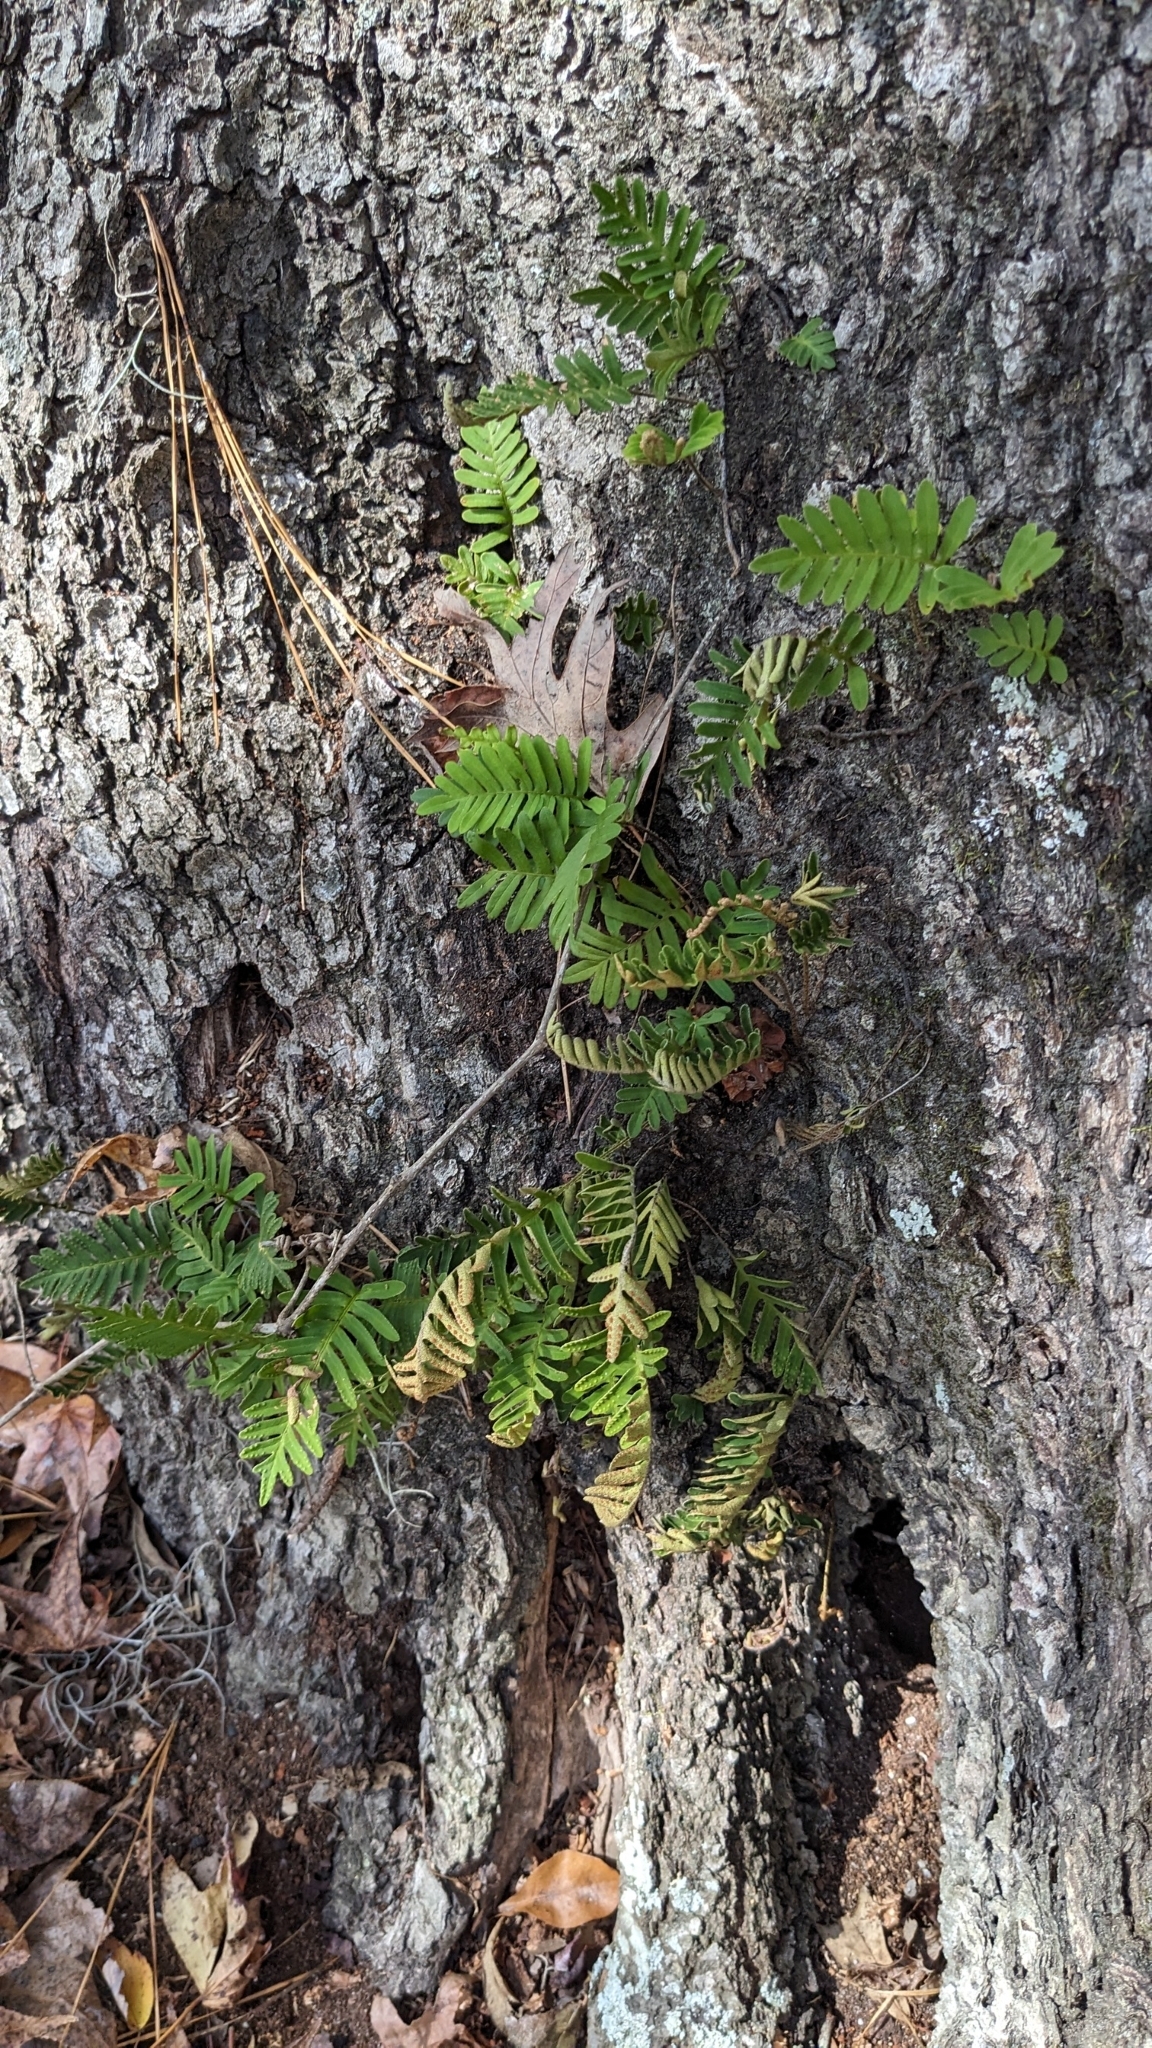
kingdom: Plantae
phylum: Tracheophyta
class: Polypodiopsida
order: Polypodiales
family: Polypodiaceae
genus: Pleopeltis
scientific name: Pleopeltis michauxiana
